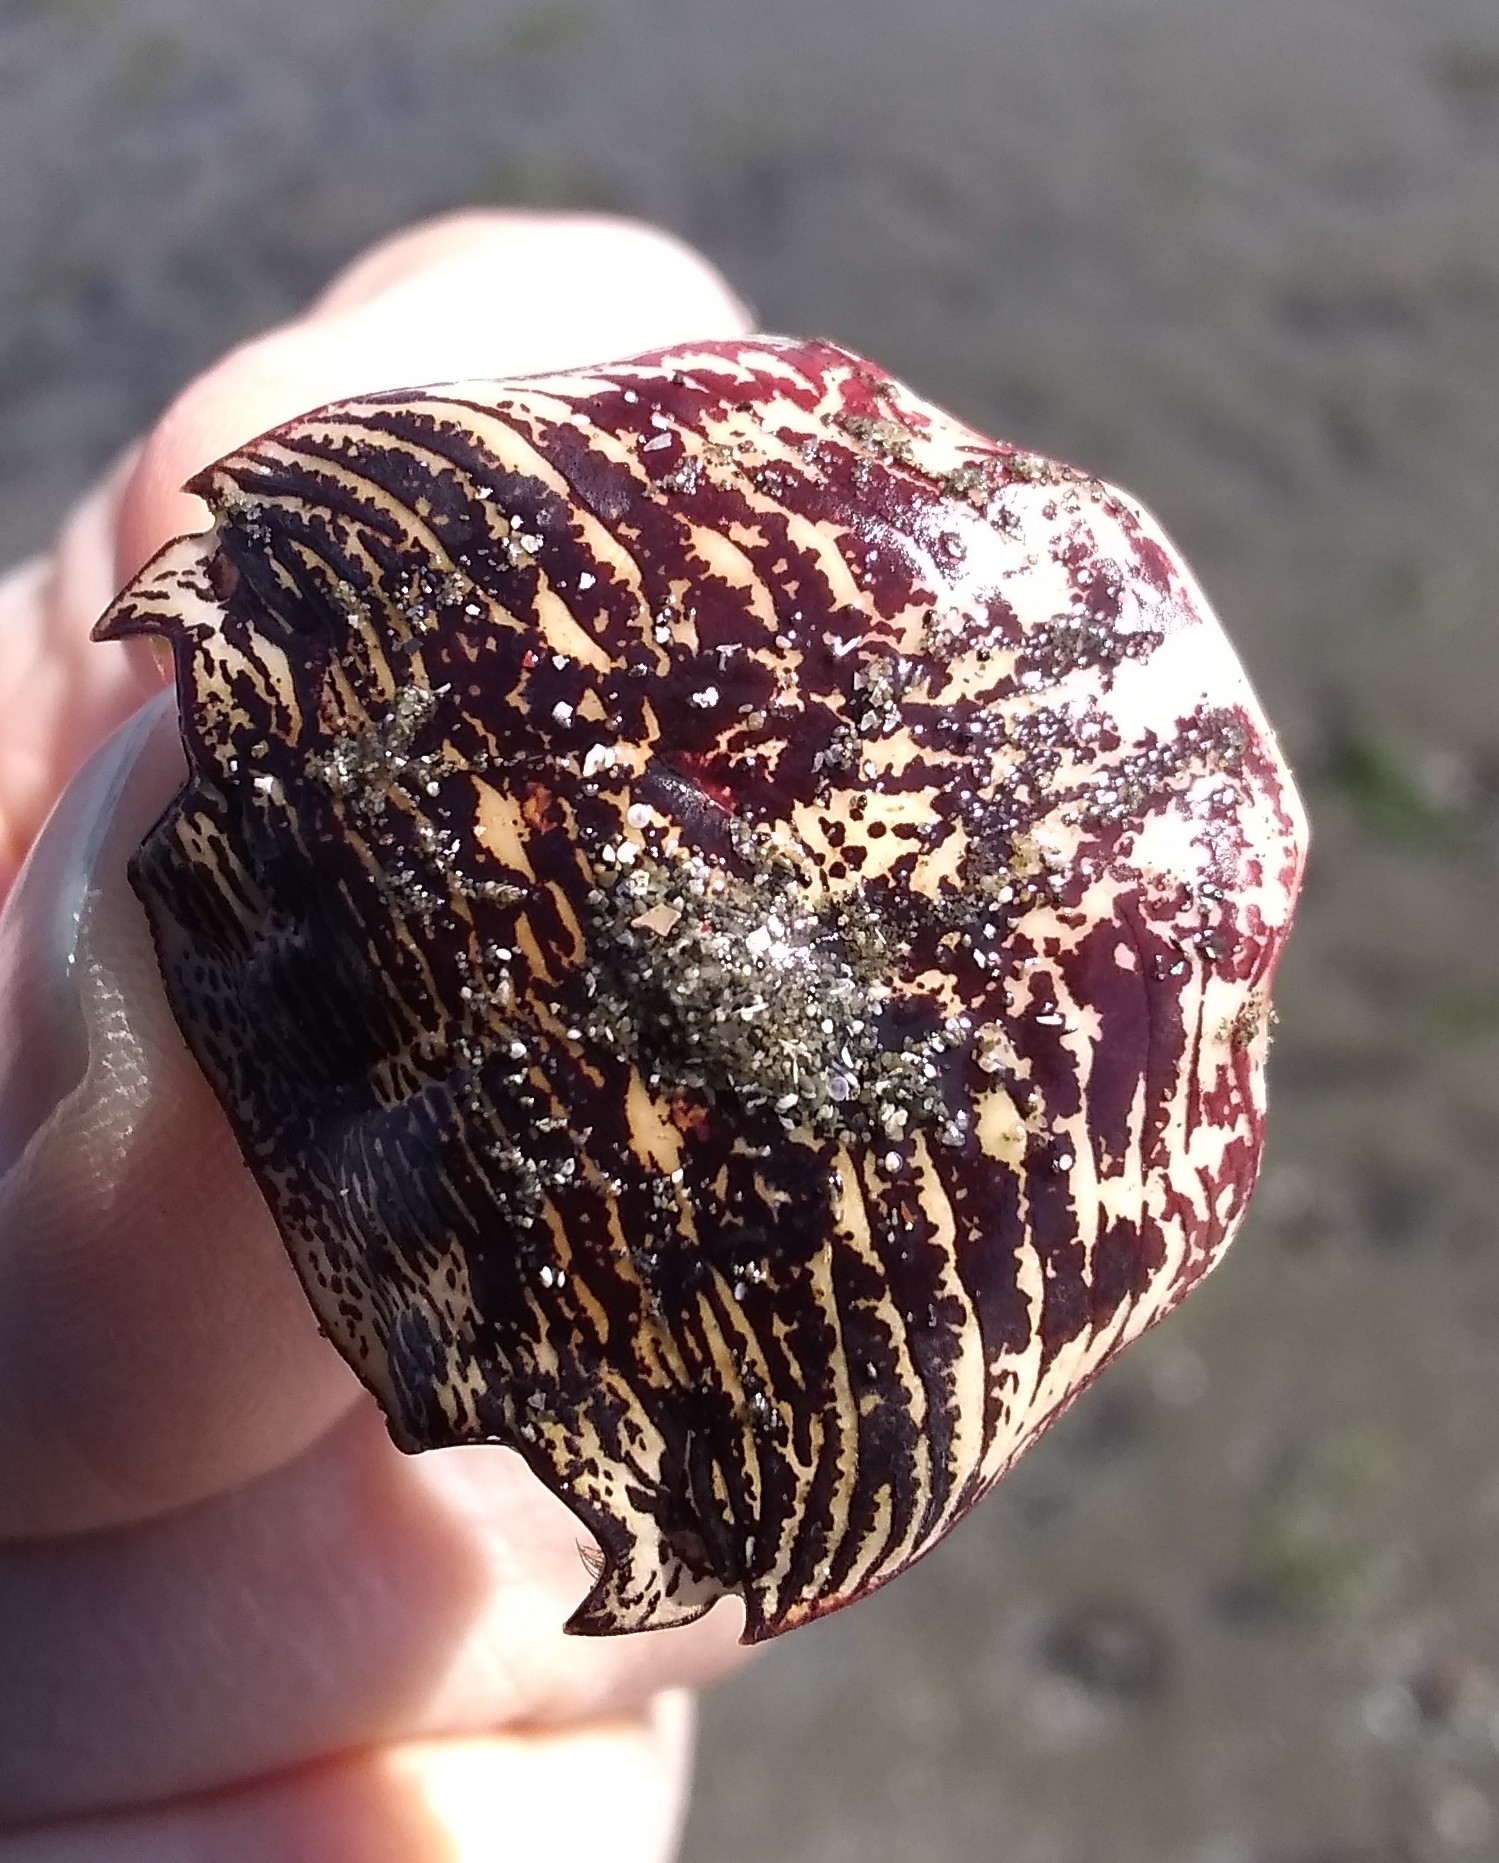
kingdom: Animalia
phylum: Arthropoda
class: Malacostraca
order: Decapoda
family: Grapsidae
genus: Pachygrapsus
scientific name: Pachygrapsus crassipes
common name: Striped shore crab
